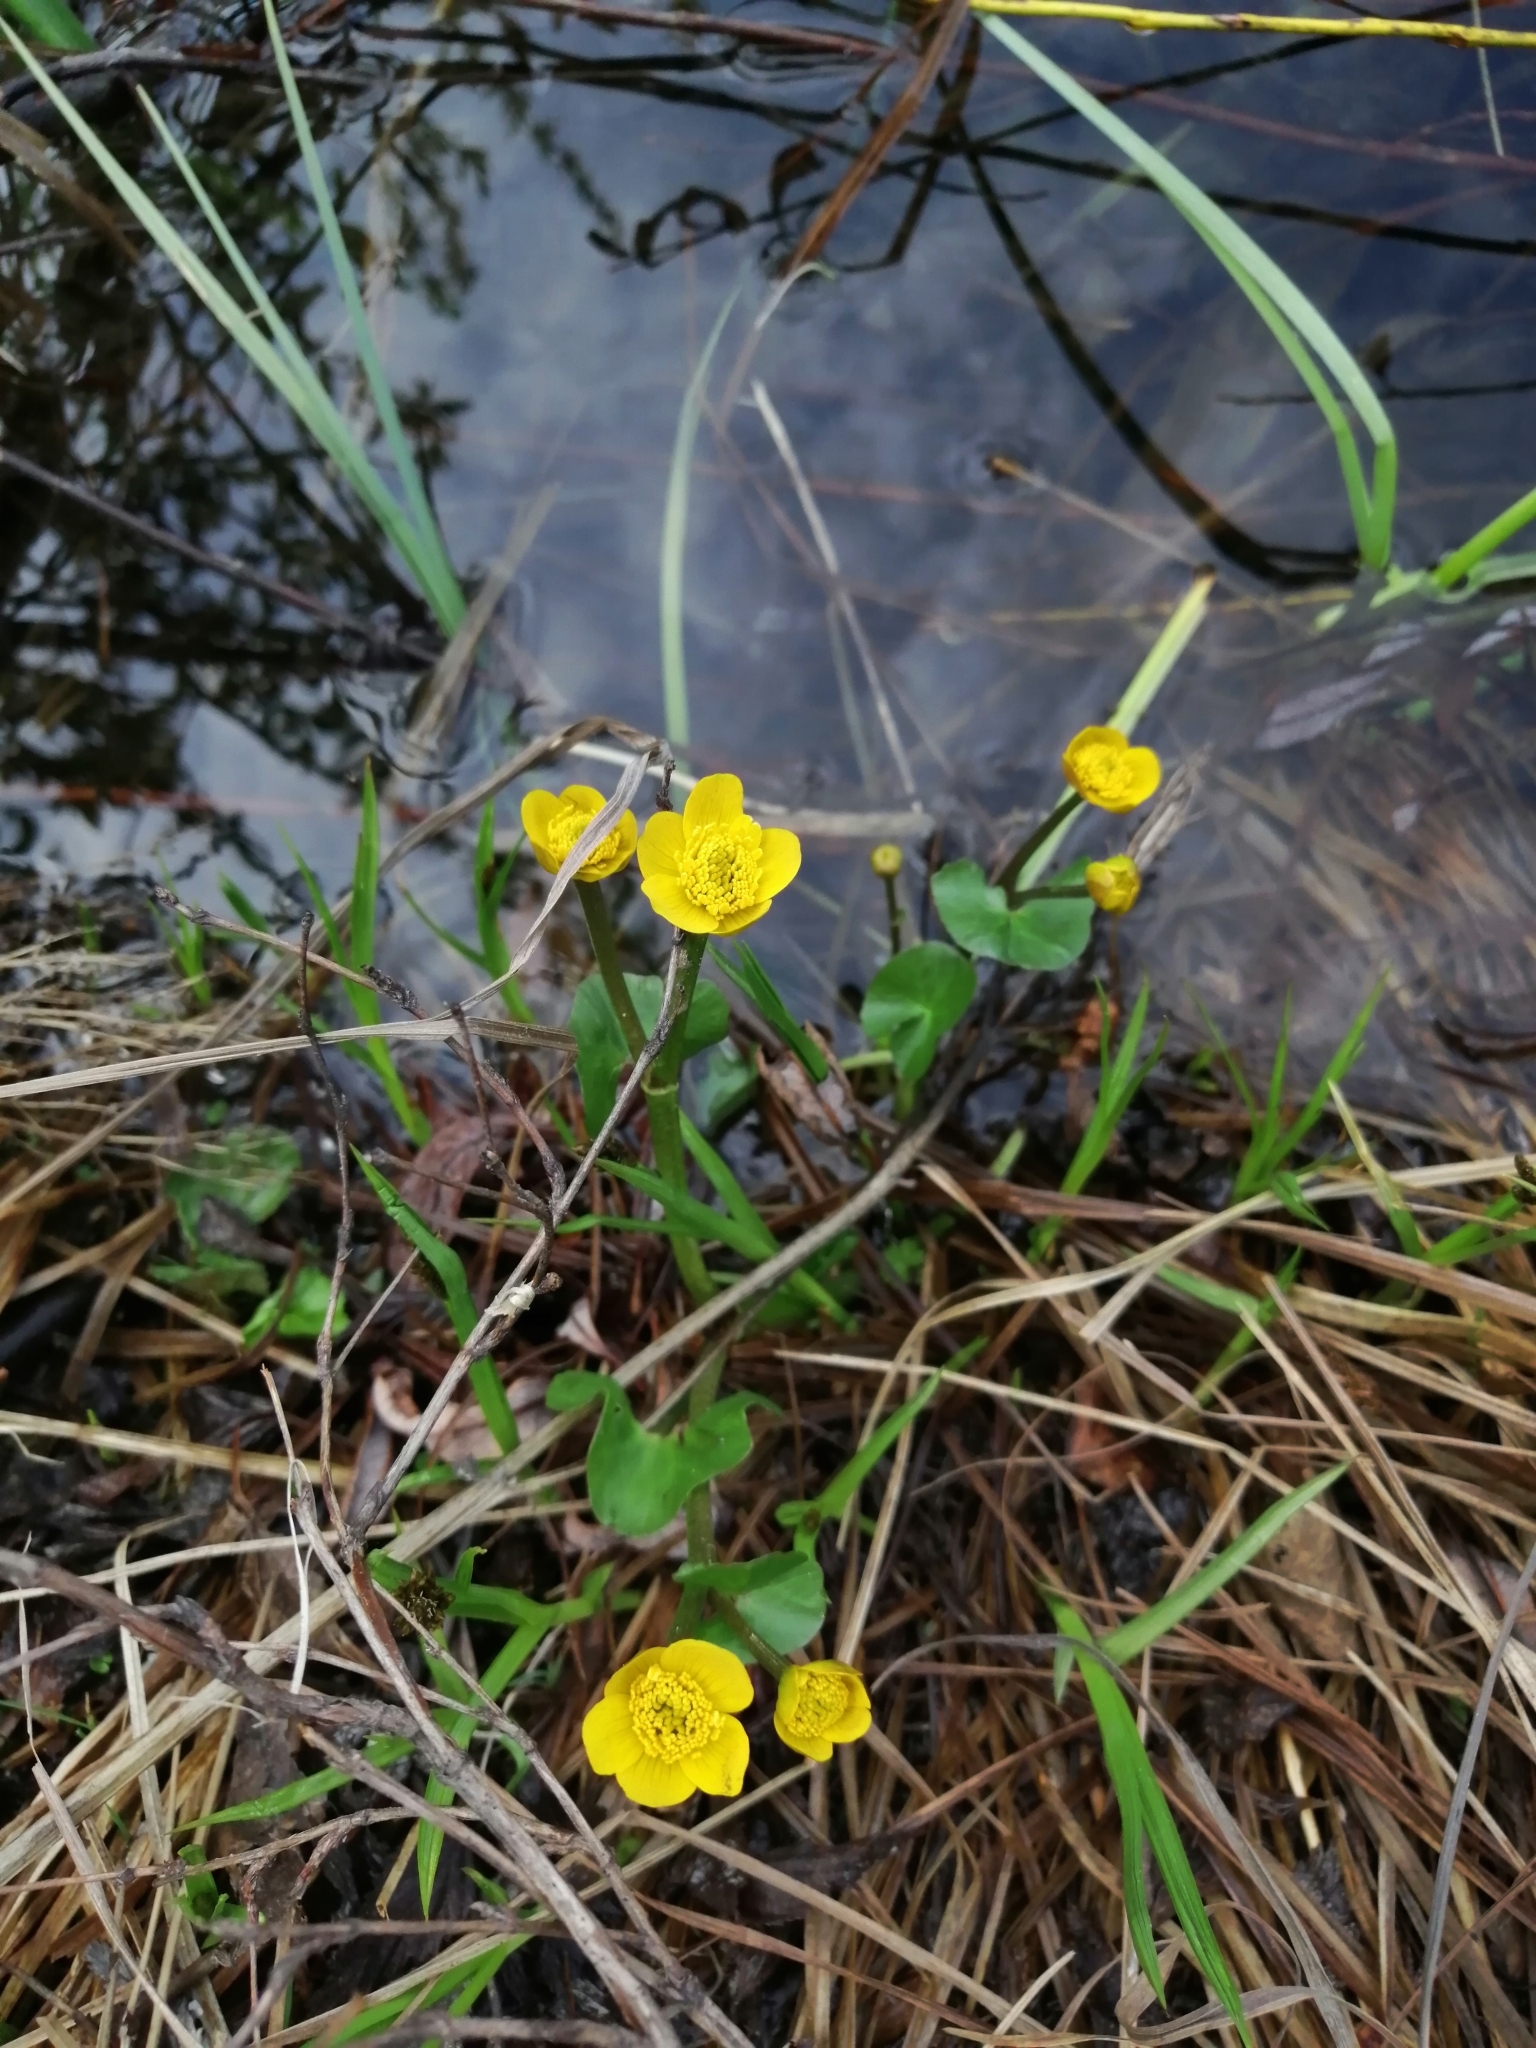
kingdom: Plantae
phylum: Tracheophyta
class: Magnoliopsida
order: Ranunculales
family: Ranunculaceae
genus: Caltha
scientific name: Caltha palustris
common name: Marsh marigold
